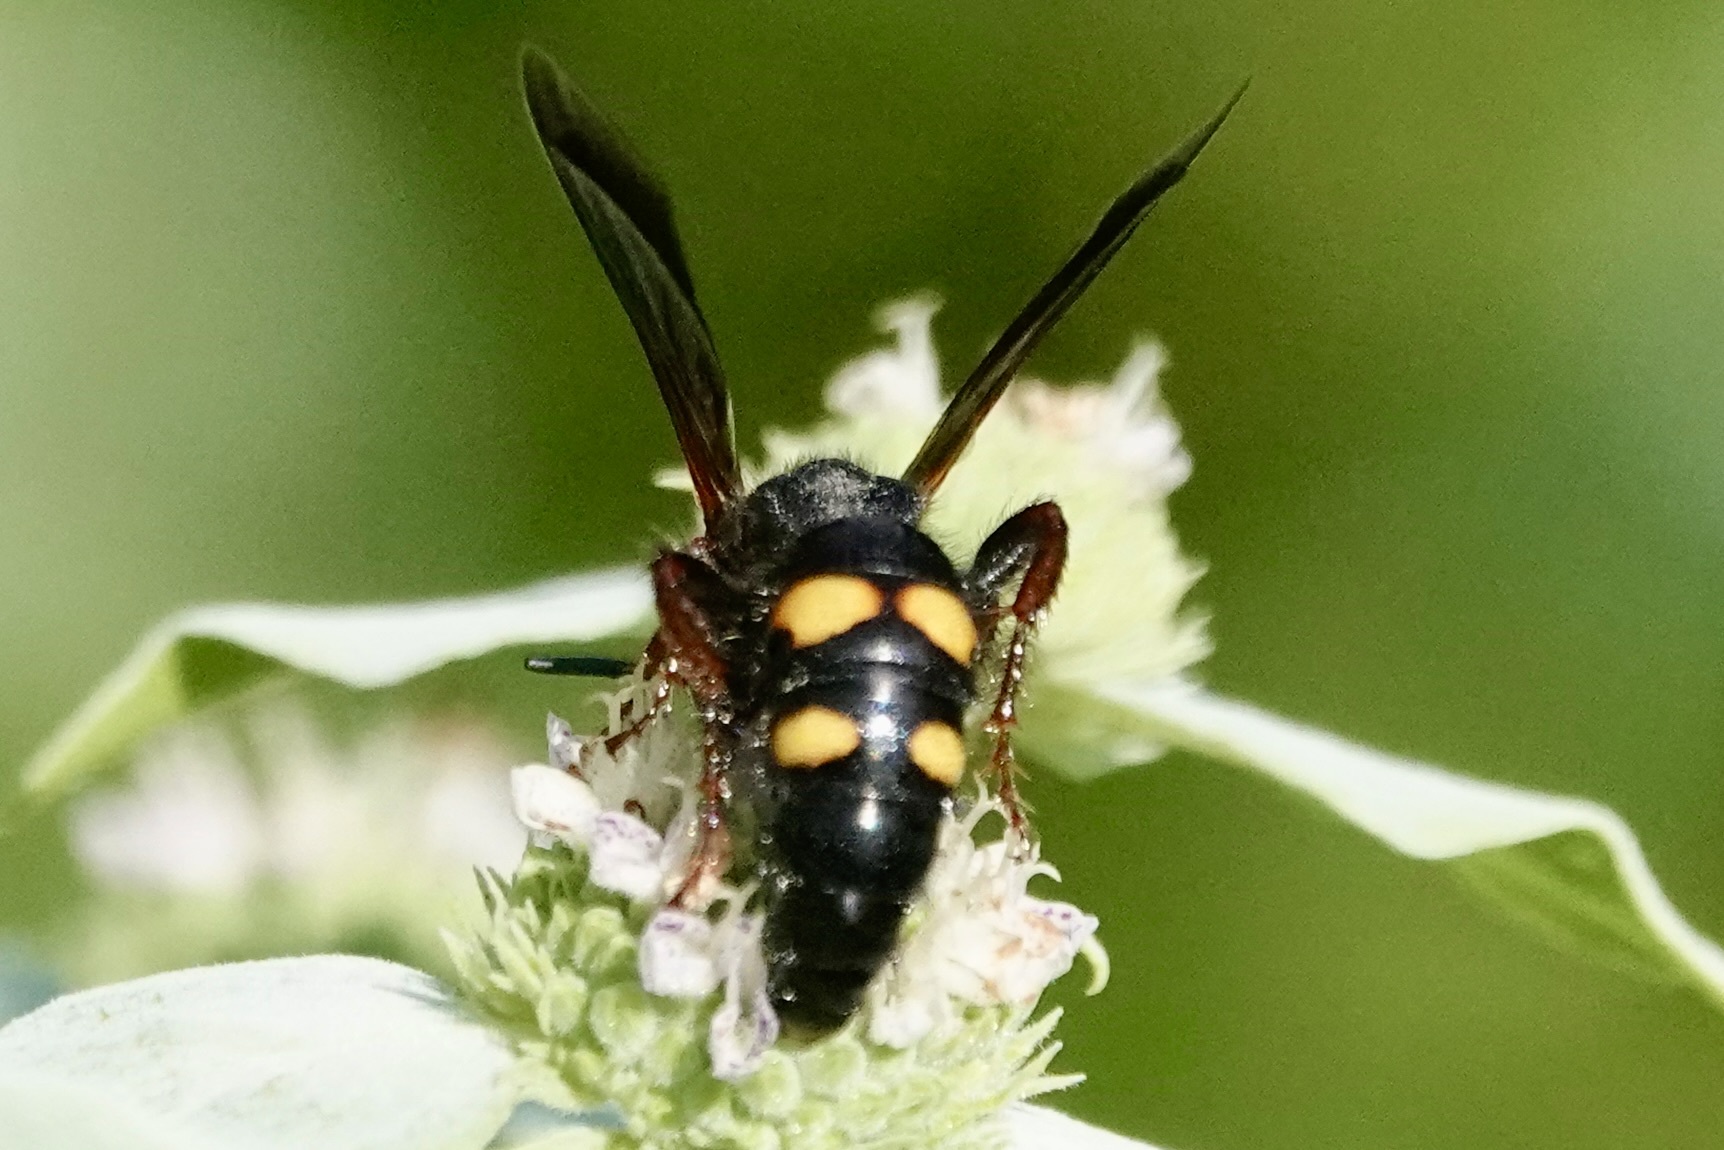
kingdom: Animalia
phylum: Arthropoda
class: Insecta
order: Hymenoptera
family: Scoliidae
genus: Scolia
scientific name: Scolia nobilitata
